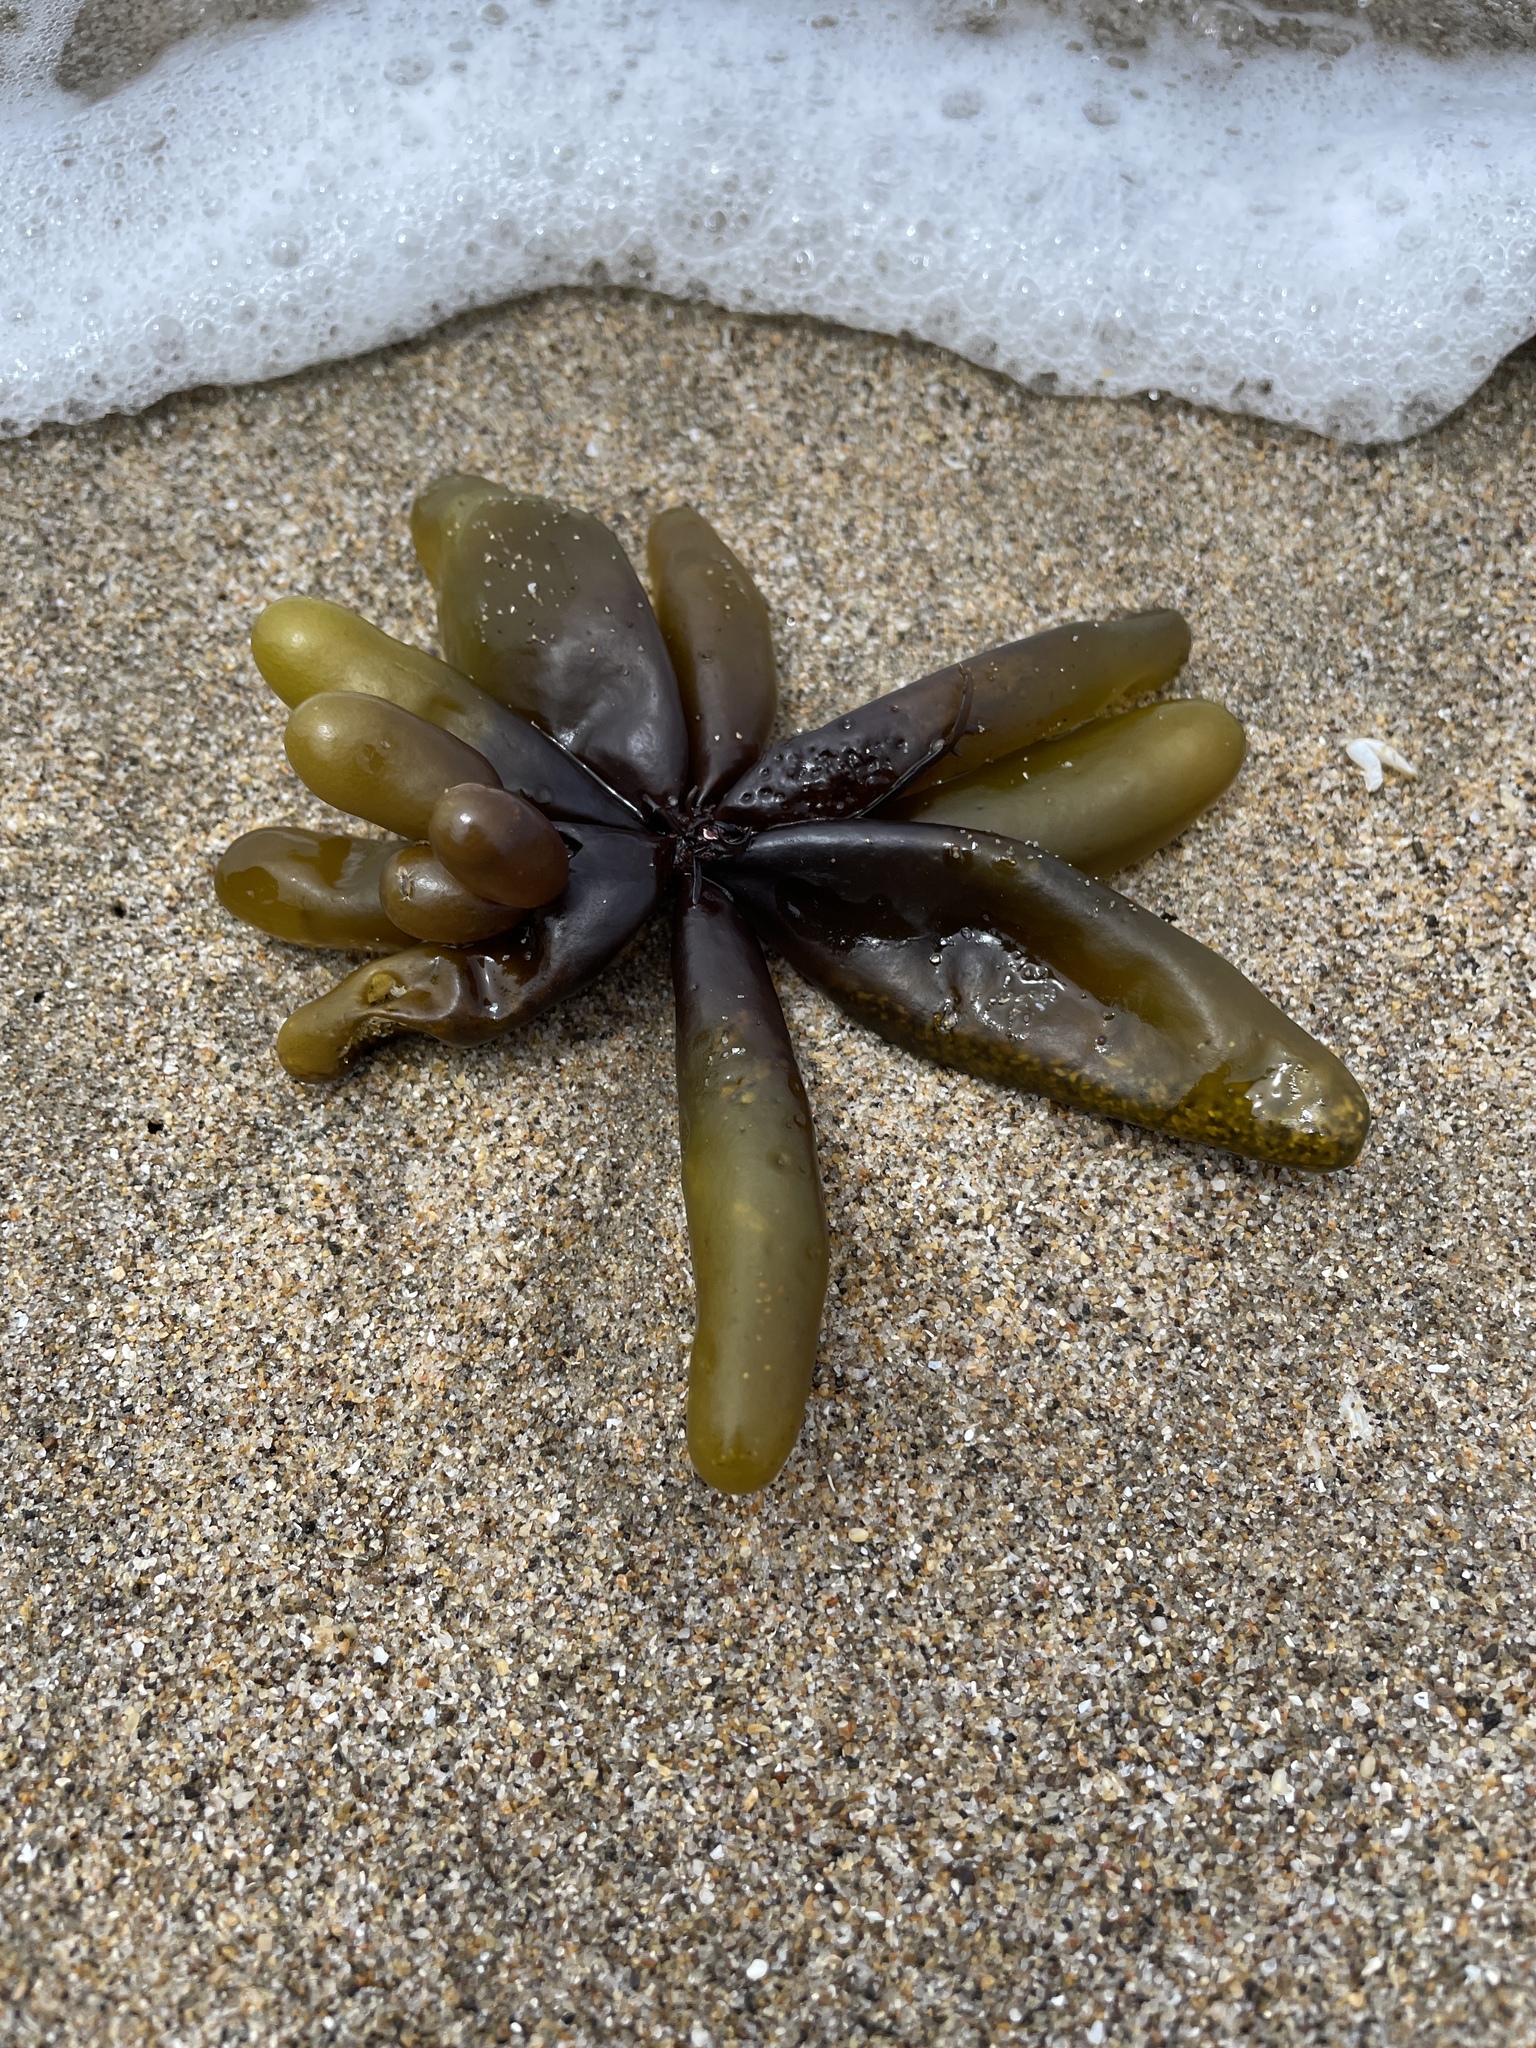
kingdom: Plantae
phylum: Rhodophyta
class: Florideophyceae
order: Palmariales
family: Palmariaceae
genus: Halosaccion
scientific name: Halosaccion glandiforme
